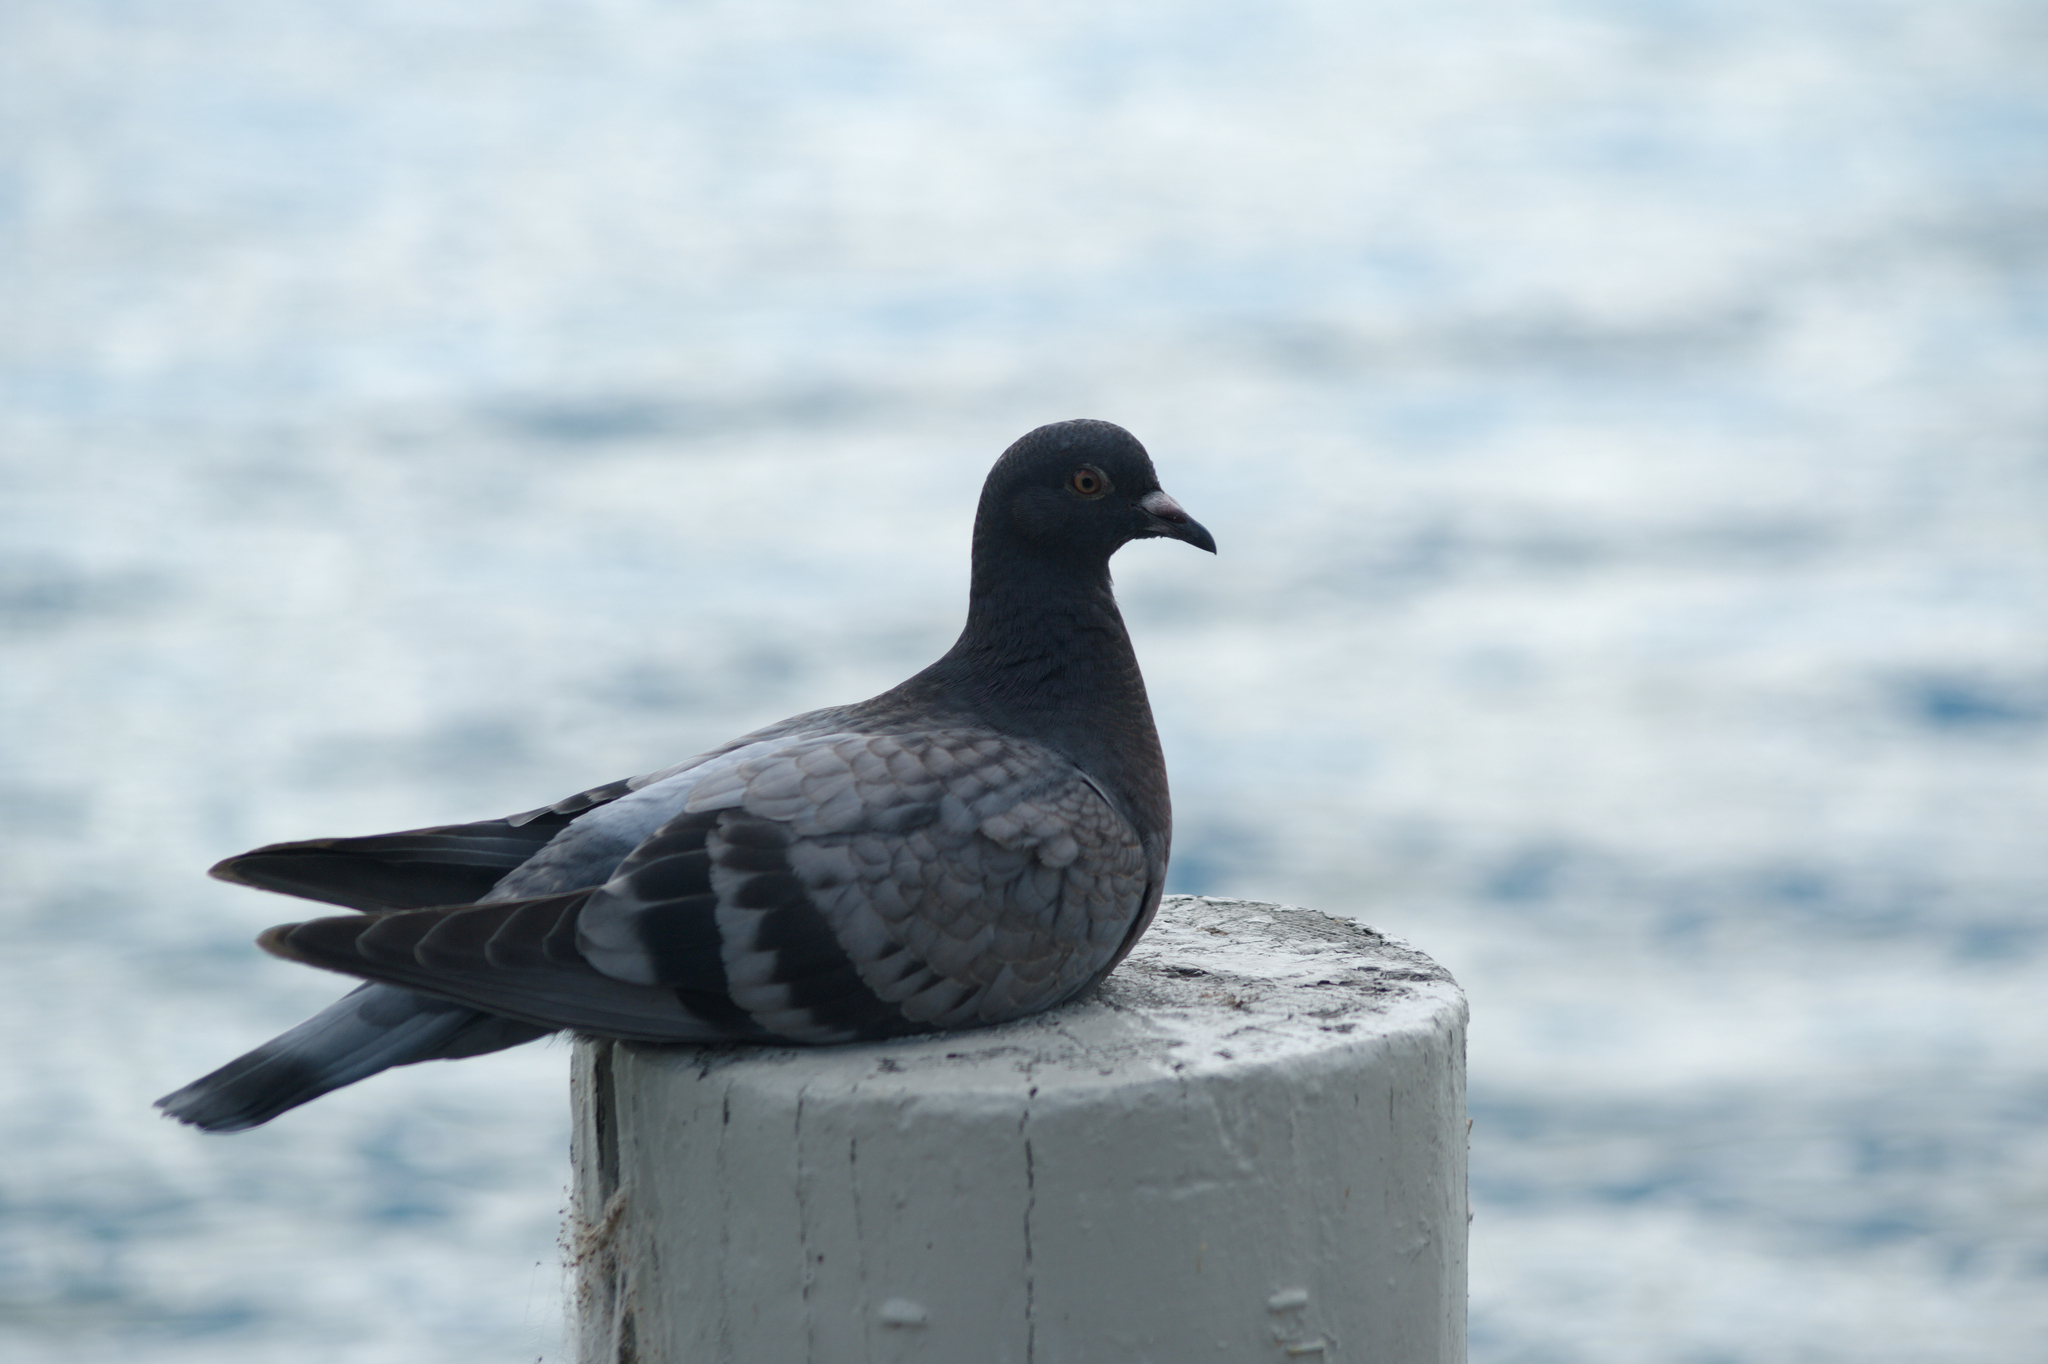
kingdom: Animalia
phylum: Chordata
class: Aves
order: Columbiformes
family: Columbidae
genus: Columba
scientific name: Columba livia
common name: Rock pigeon
